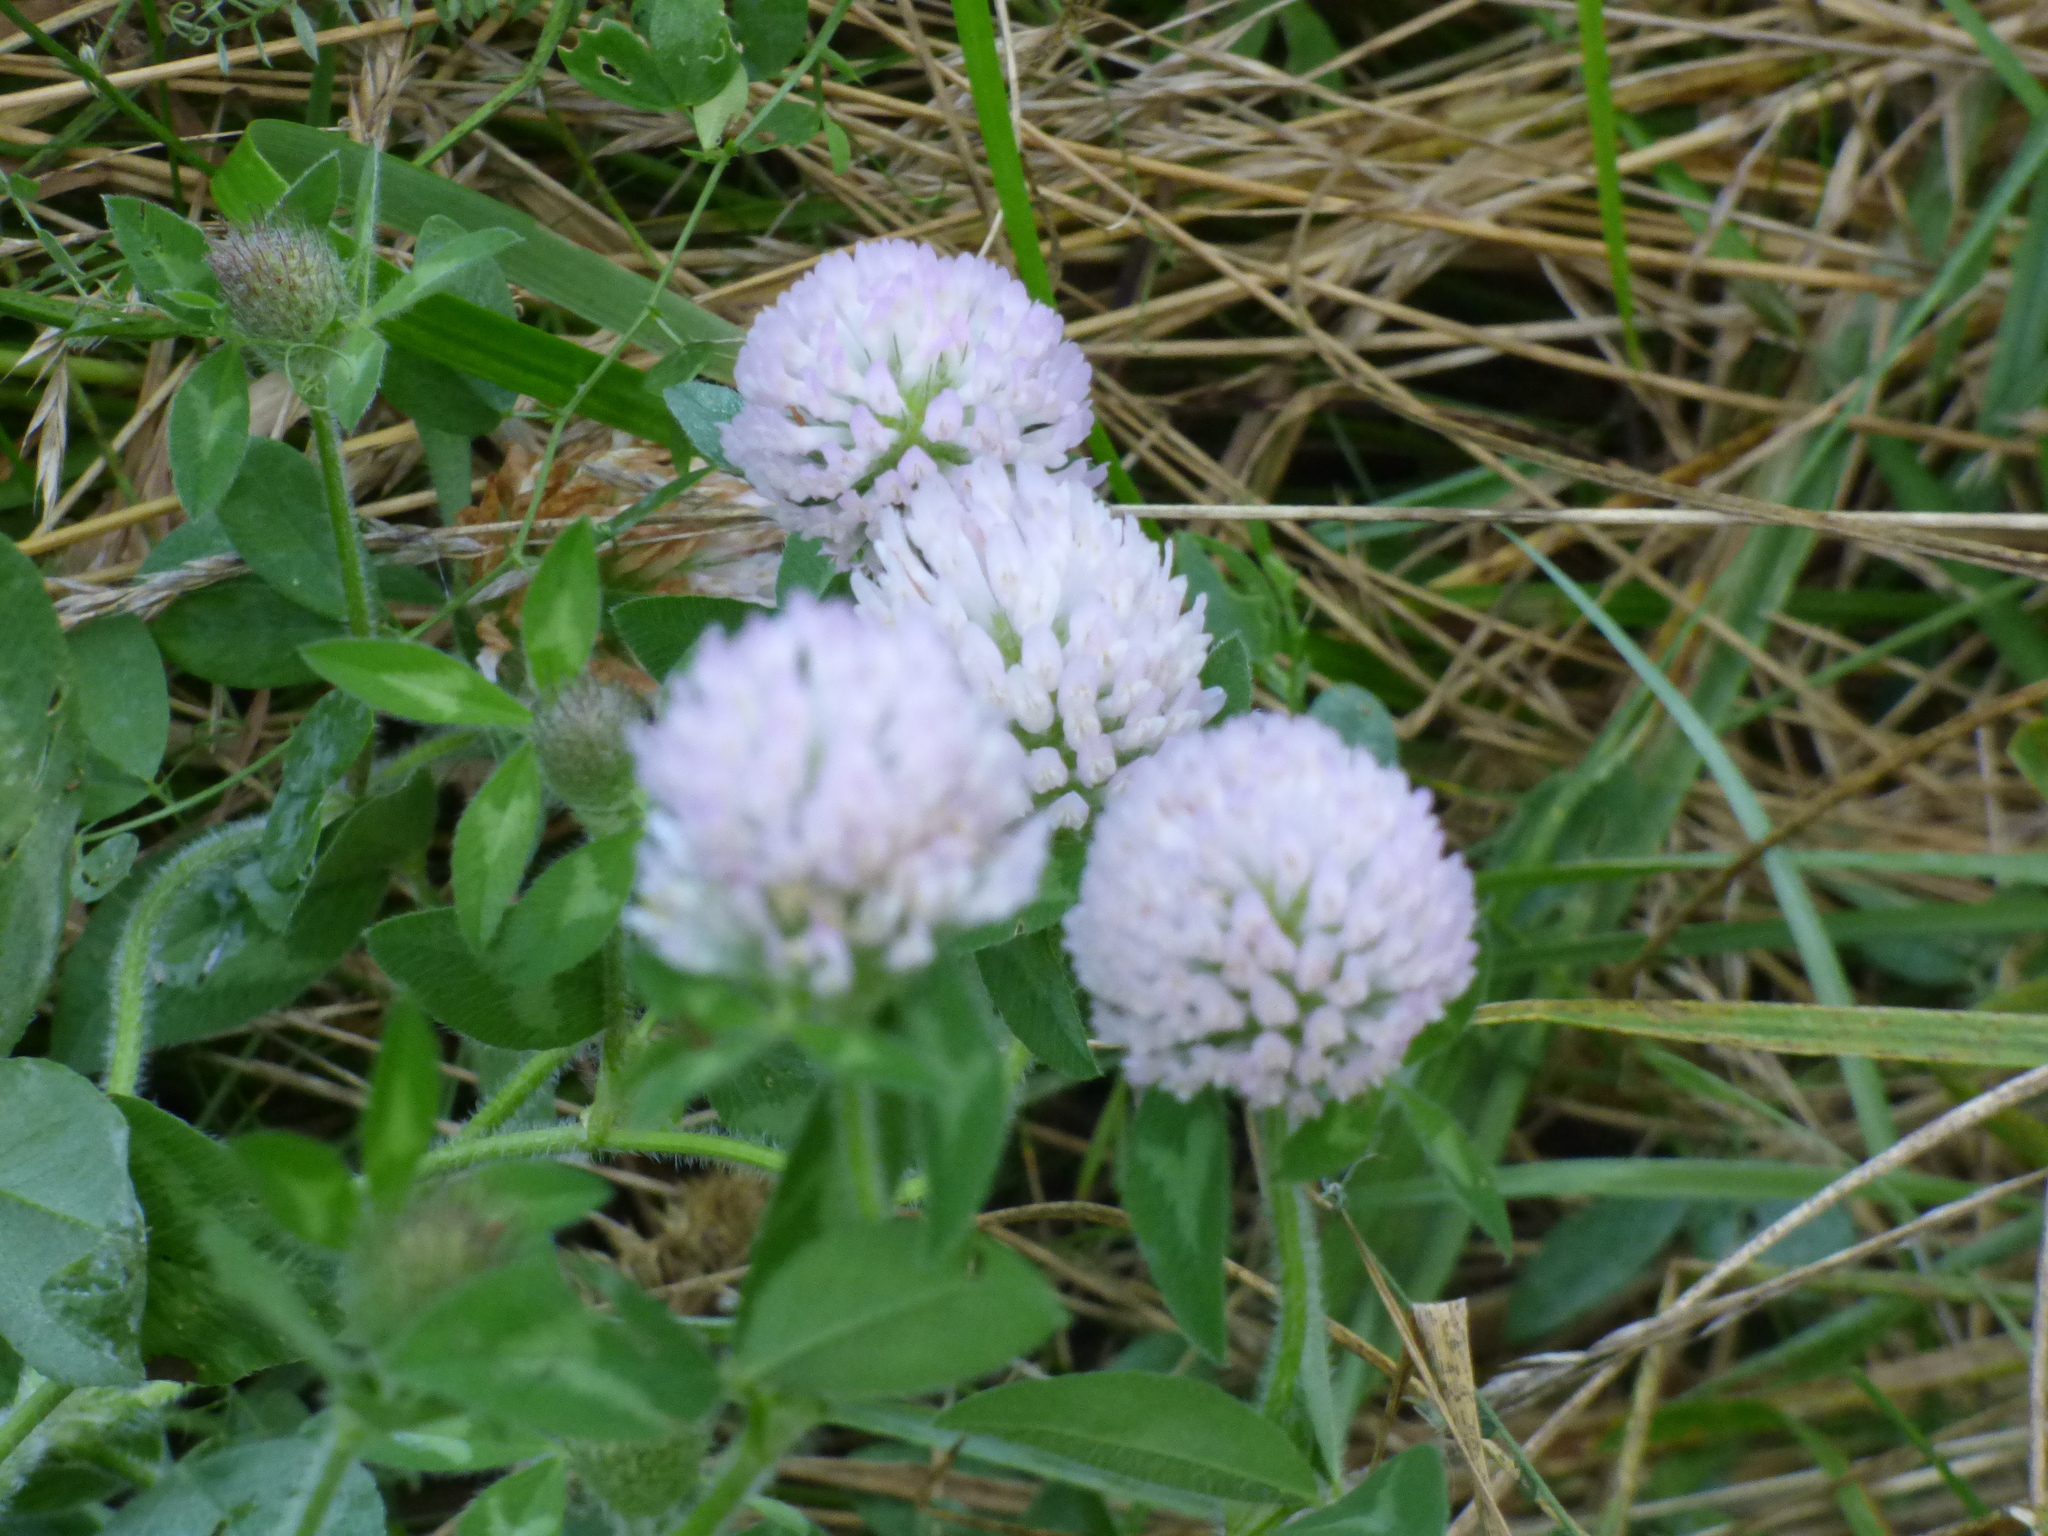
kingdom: Plantae
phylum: Tracheophyta
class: Magnoliopsida
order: Fabales
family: Fabaceae
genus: Trifolium
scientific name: Trifolium pratense
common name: Red clover
